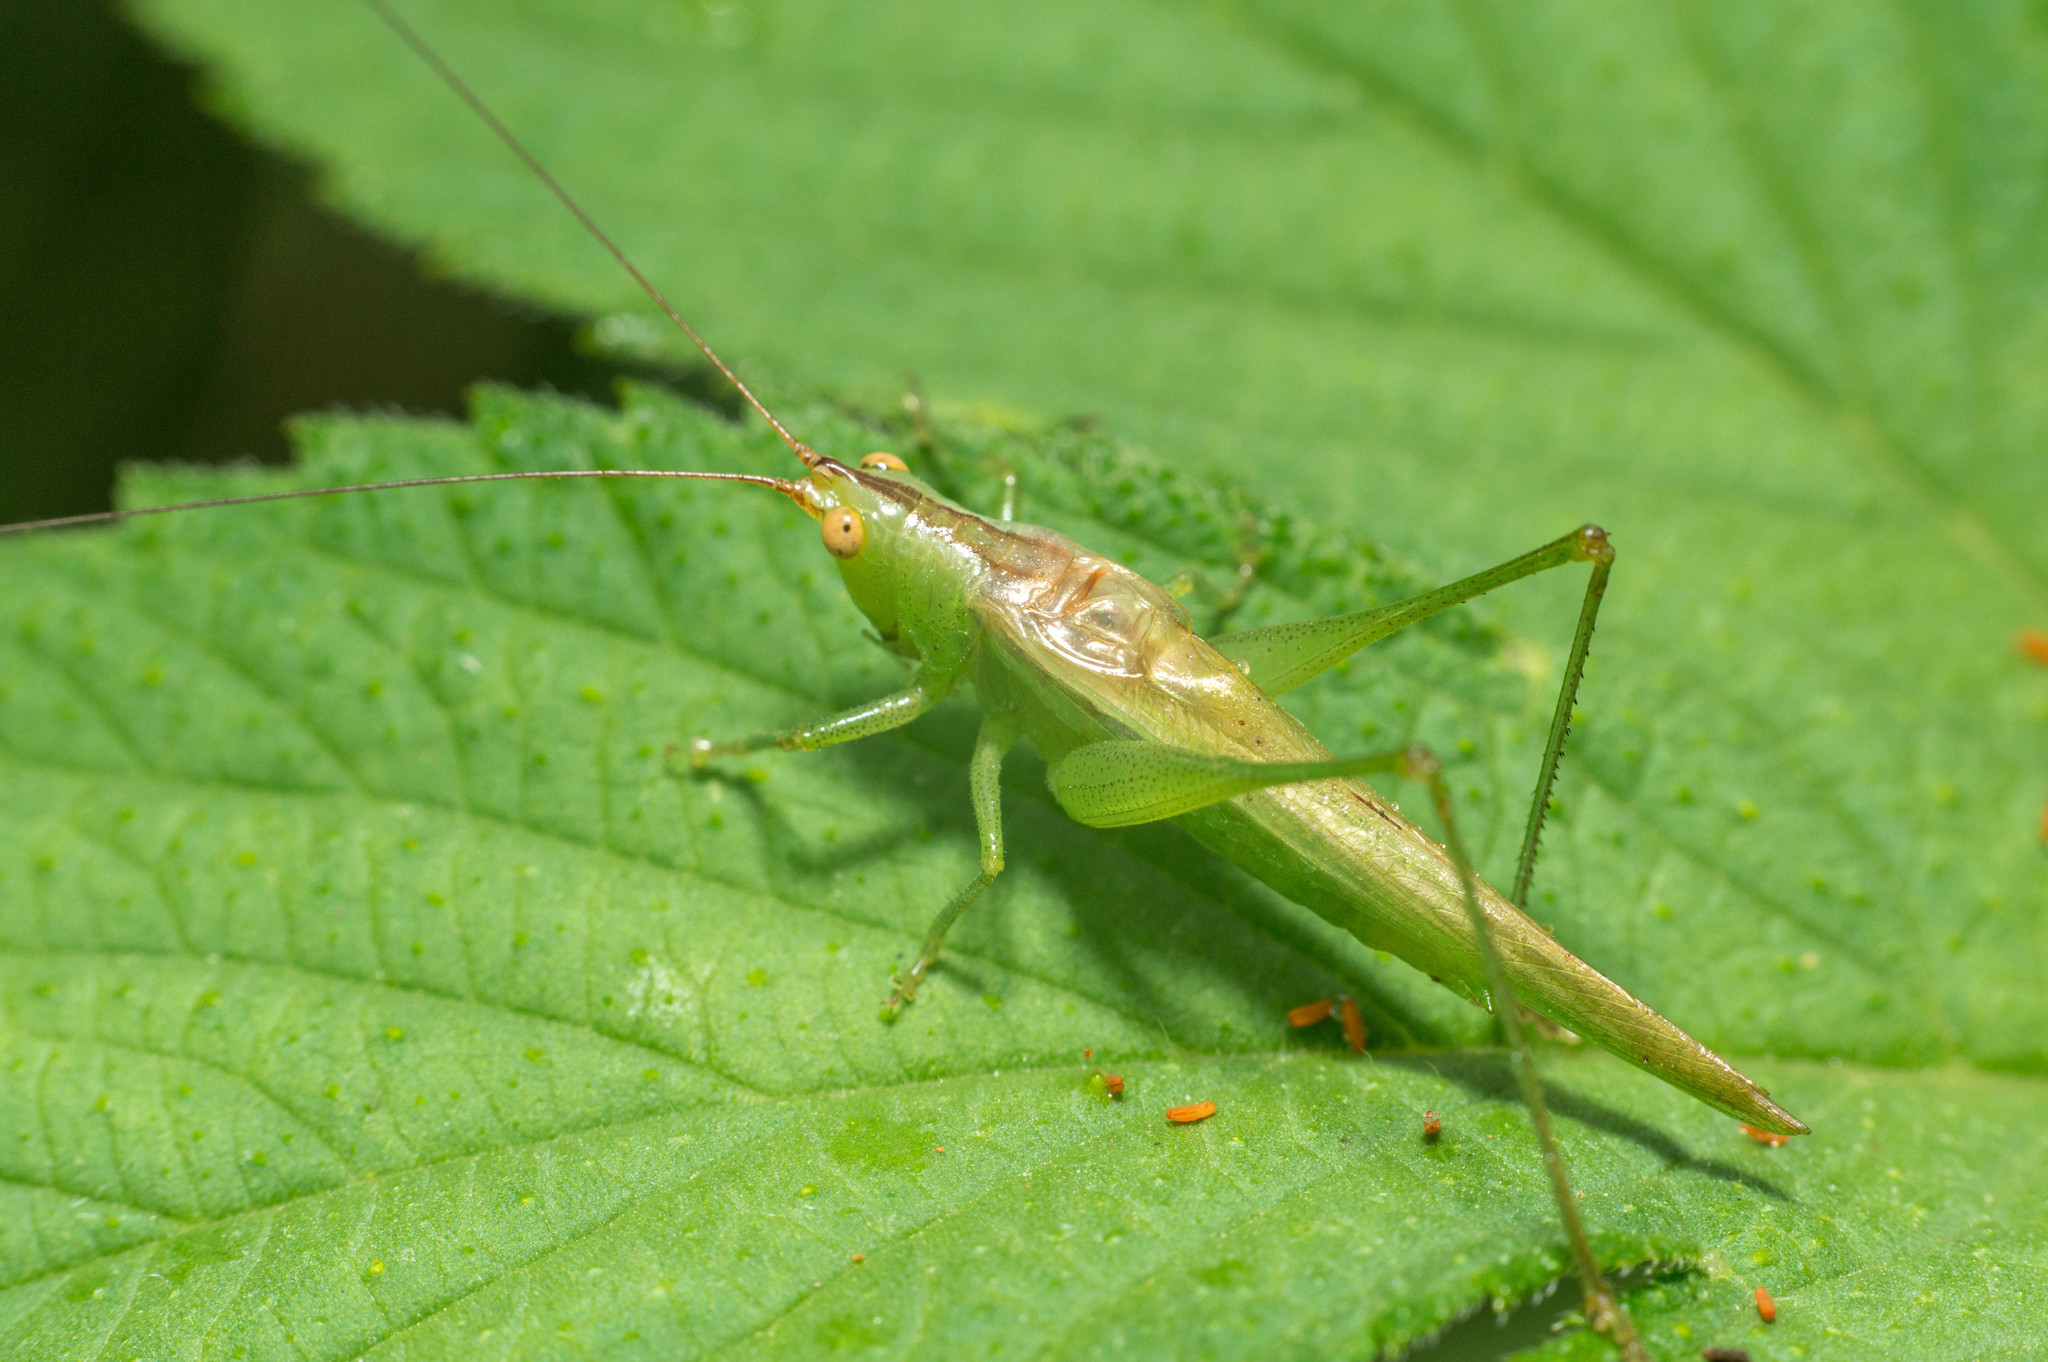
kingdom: Animalia
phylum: Arthropoda
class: Insecta
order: Orthoptera
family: Tettigoniidae
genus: Conocephalus
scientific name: Conocephalus longipes
